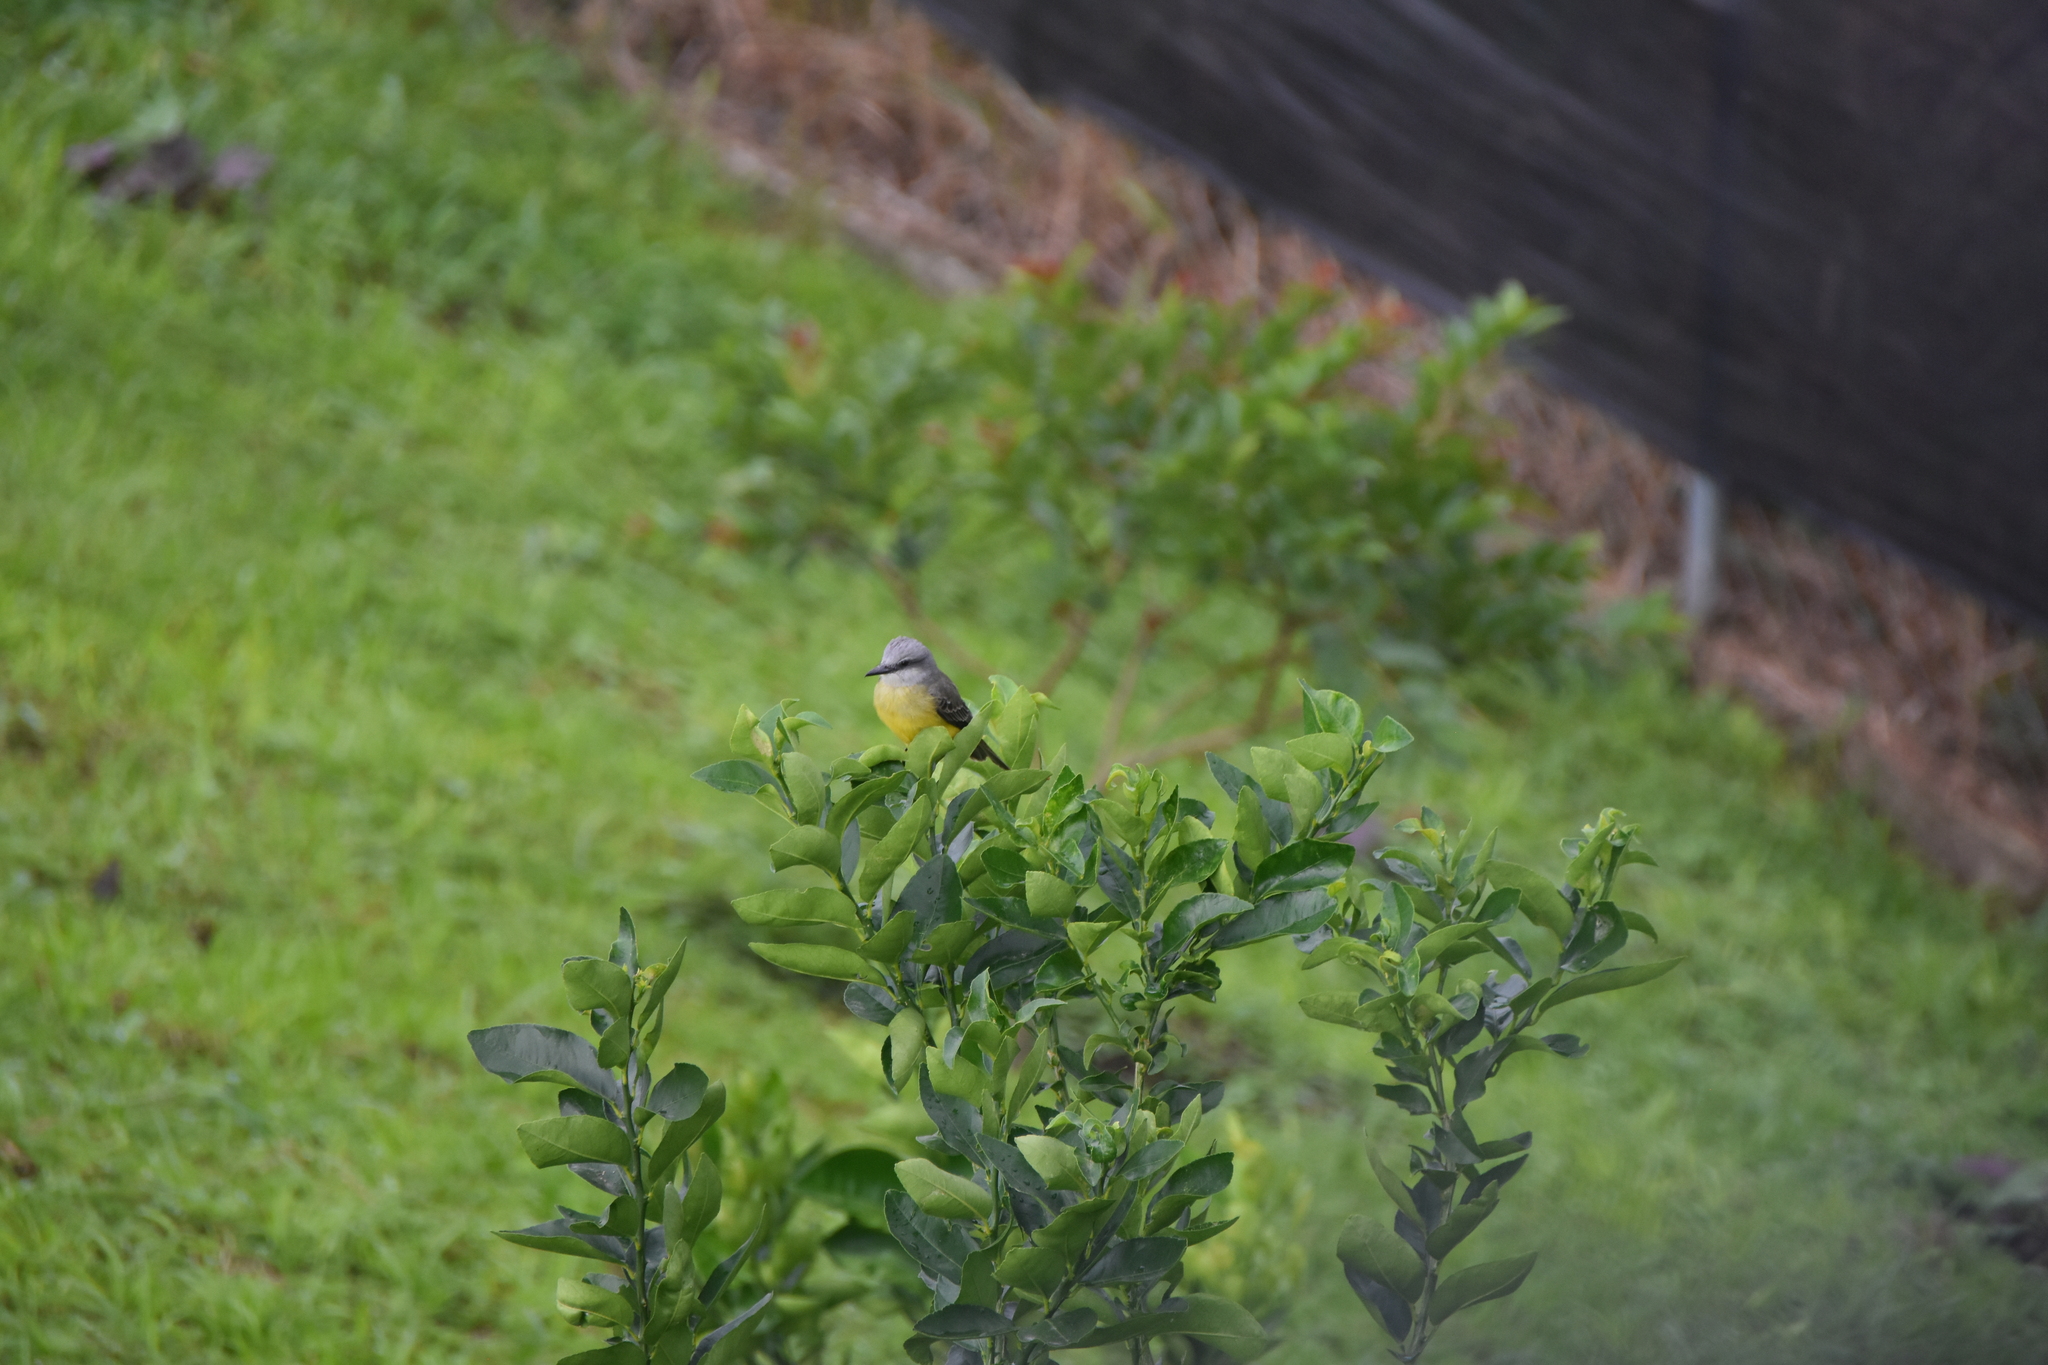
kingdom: Animalia
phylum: Chordata
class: Aves
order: Passeriformes
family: Tyrannidae
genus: Tyrannus
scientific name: Tyrannus melancholicus
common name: Tropical kingbird
